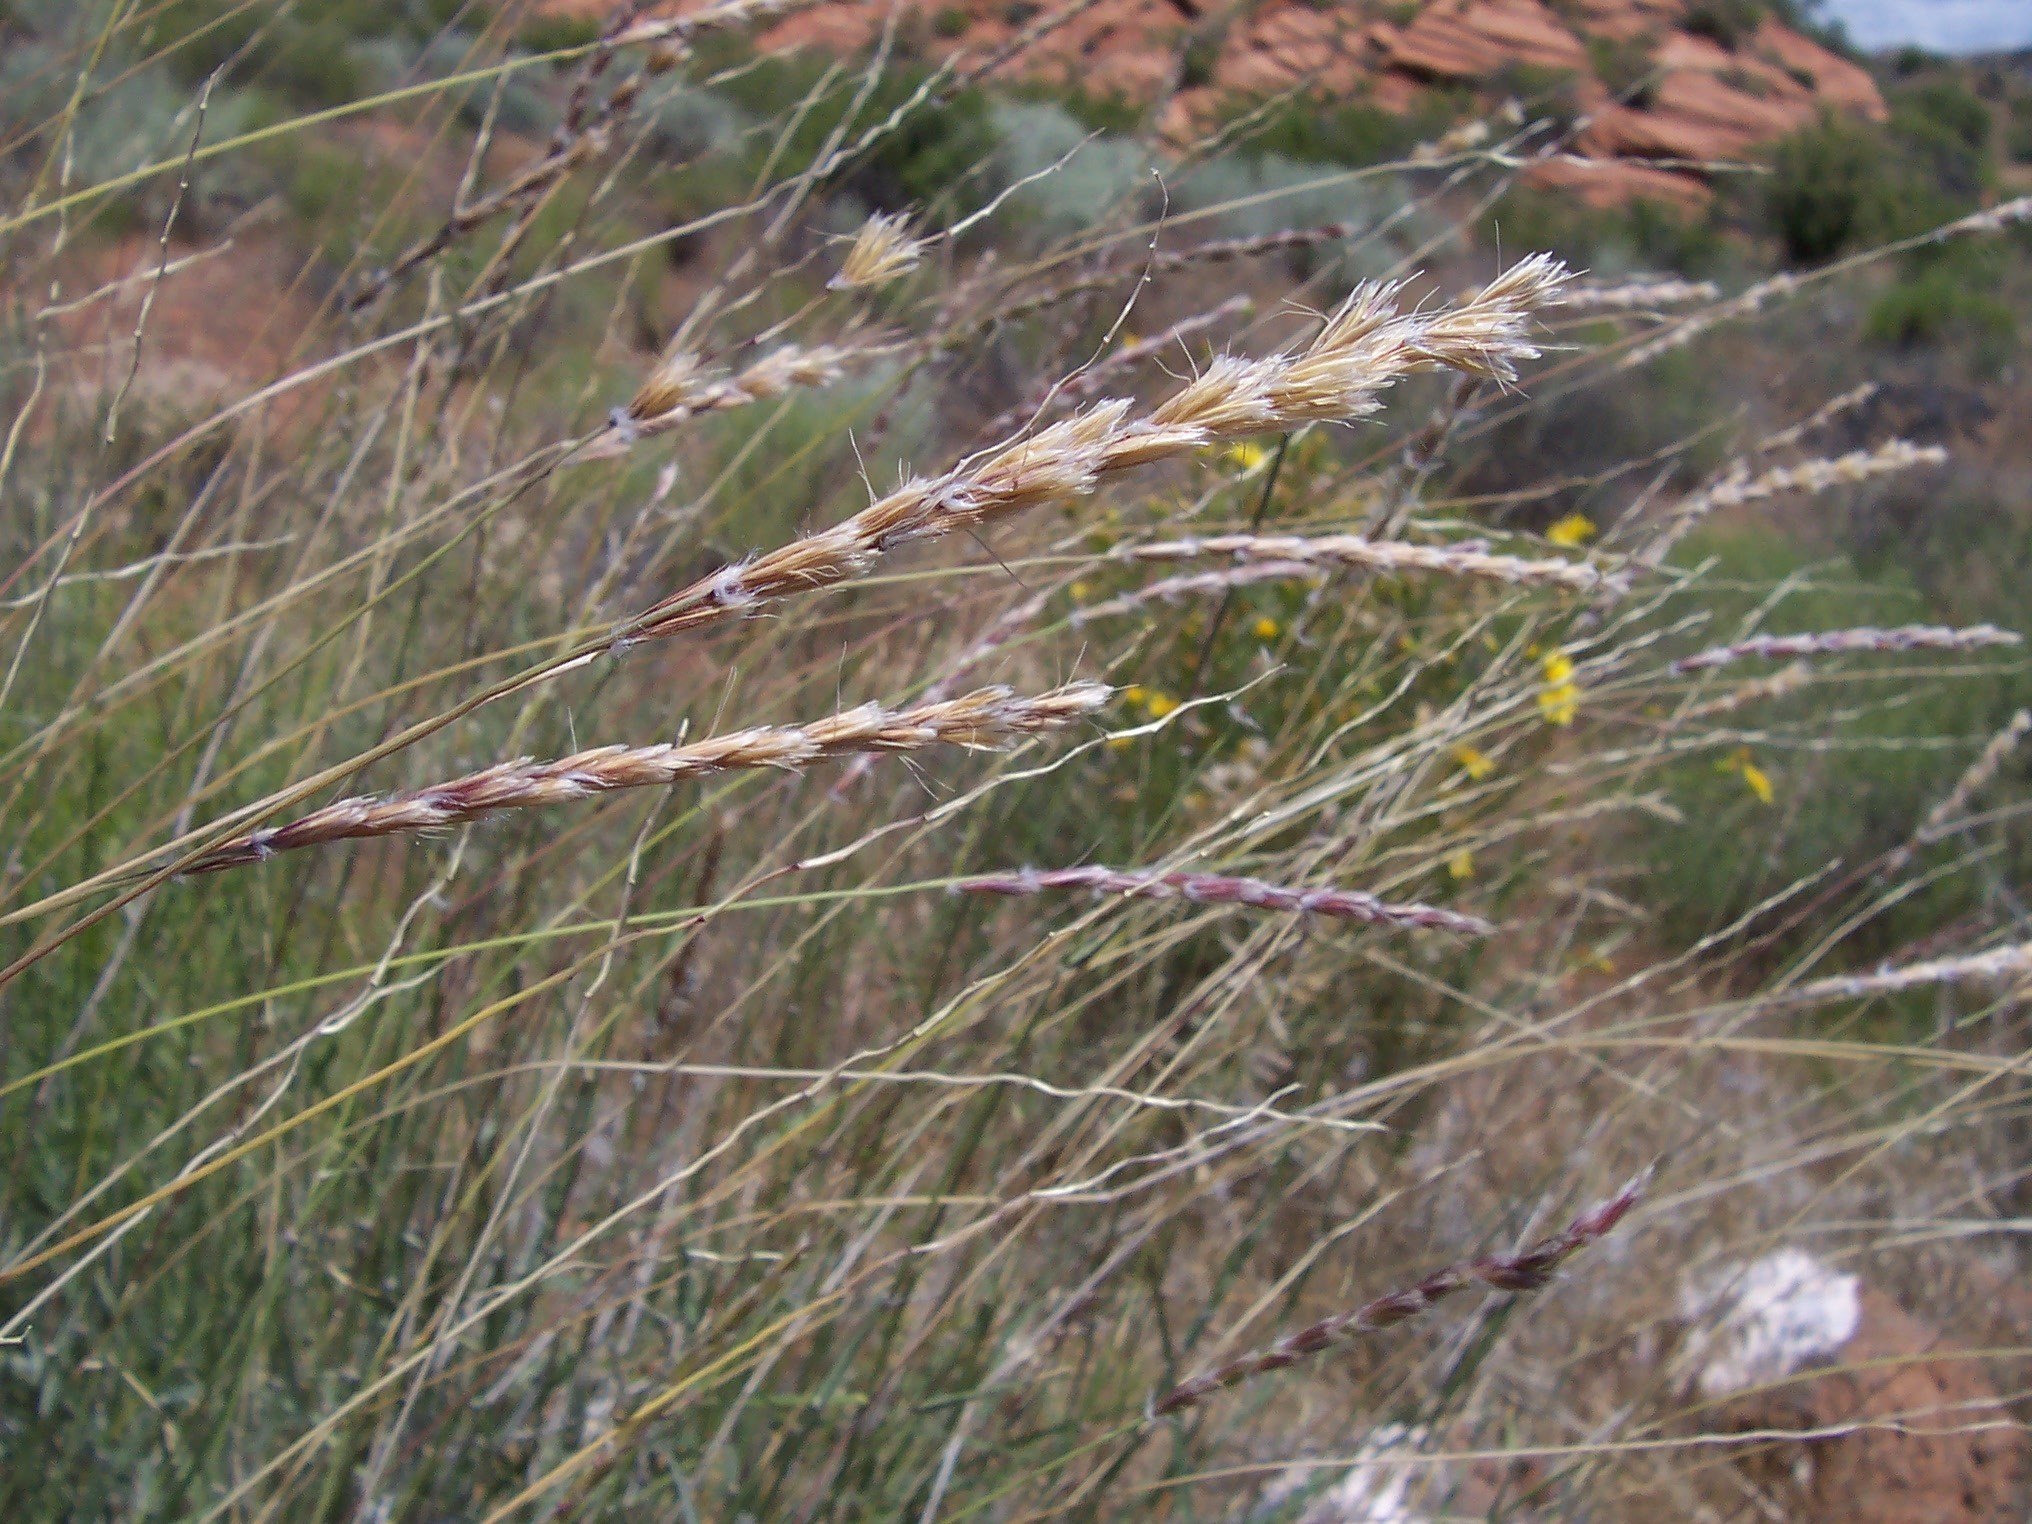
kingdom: Plantae
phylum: Tracheophyta
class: Liliopsida
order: Poales
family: Poaceae
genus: Hilaria
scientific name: Hilaria rigida
